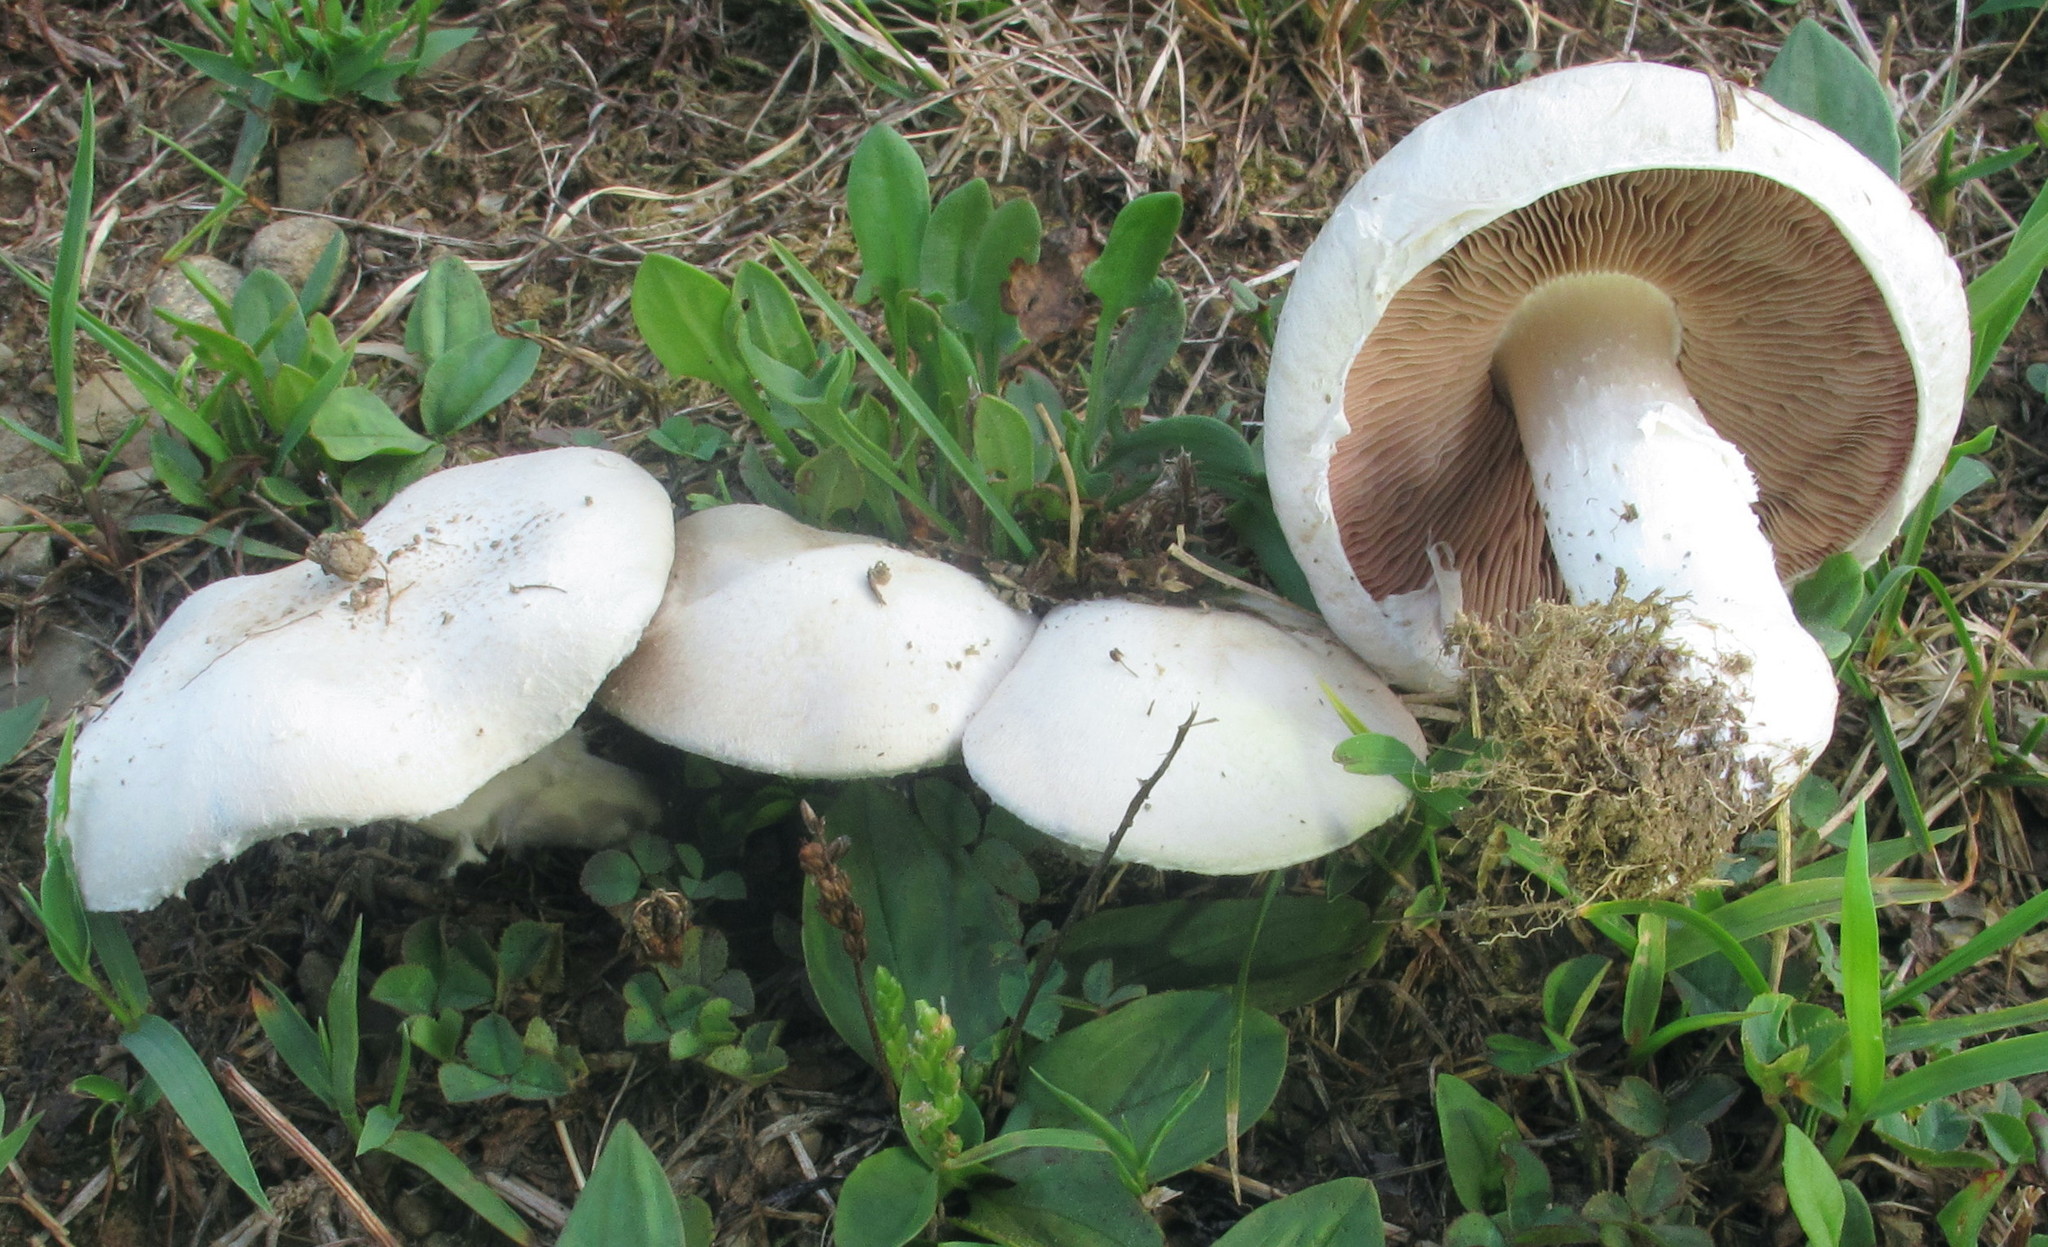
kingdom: Fungi
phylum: Basidiomycota
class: Agaricomycetes
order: Agaricales
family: Agaricaceae
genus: Agaricus
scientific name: Agaricus campestris
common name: Field mushroom
